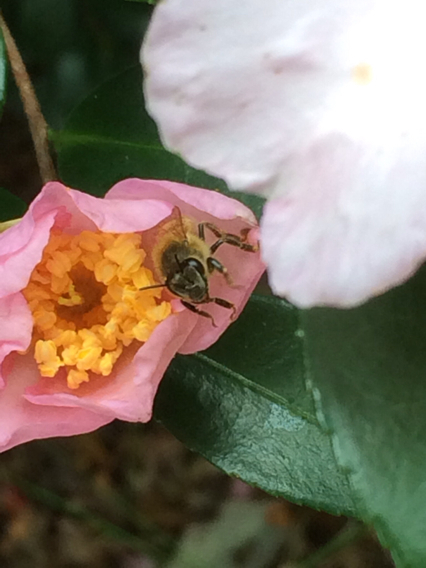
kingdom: Animalia
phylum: Arthropoda
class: Insecta
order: Hymenoptera
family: Apidae
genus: Apis
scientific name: Apis mellifera
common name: Honey bee
